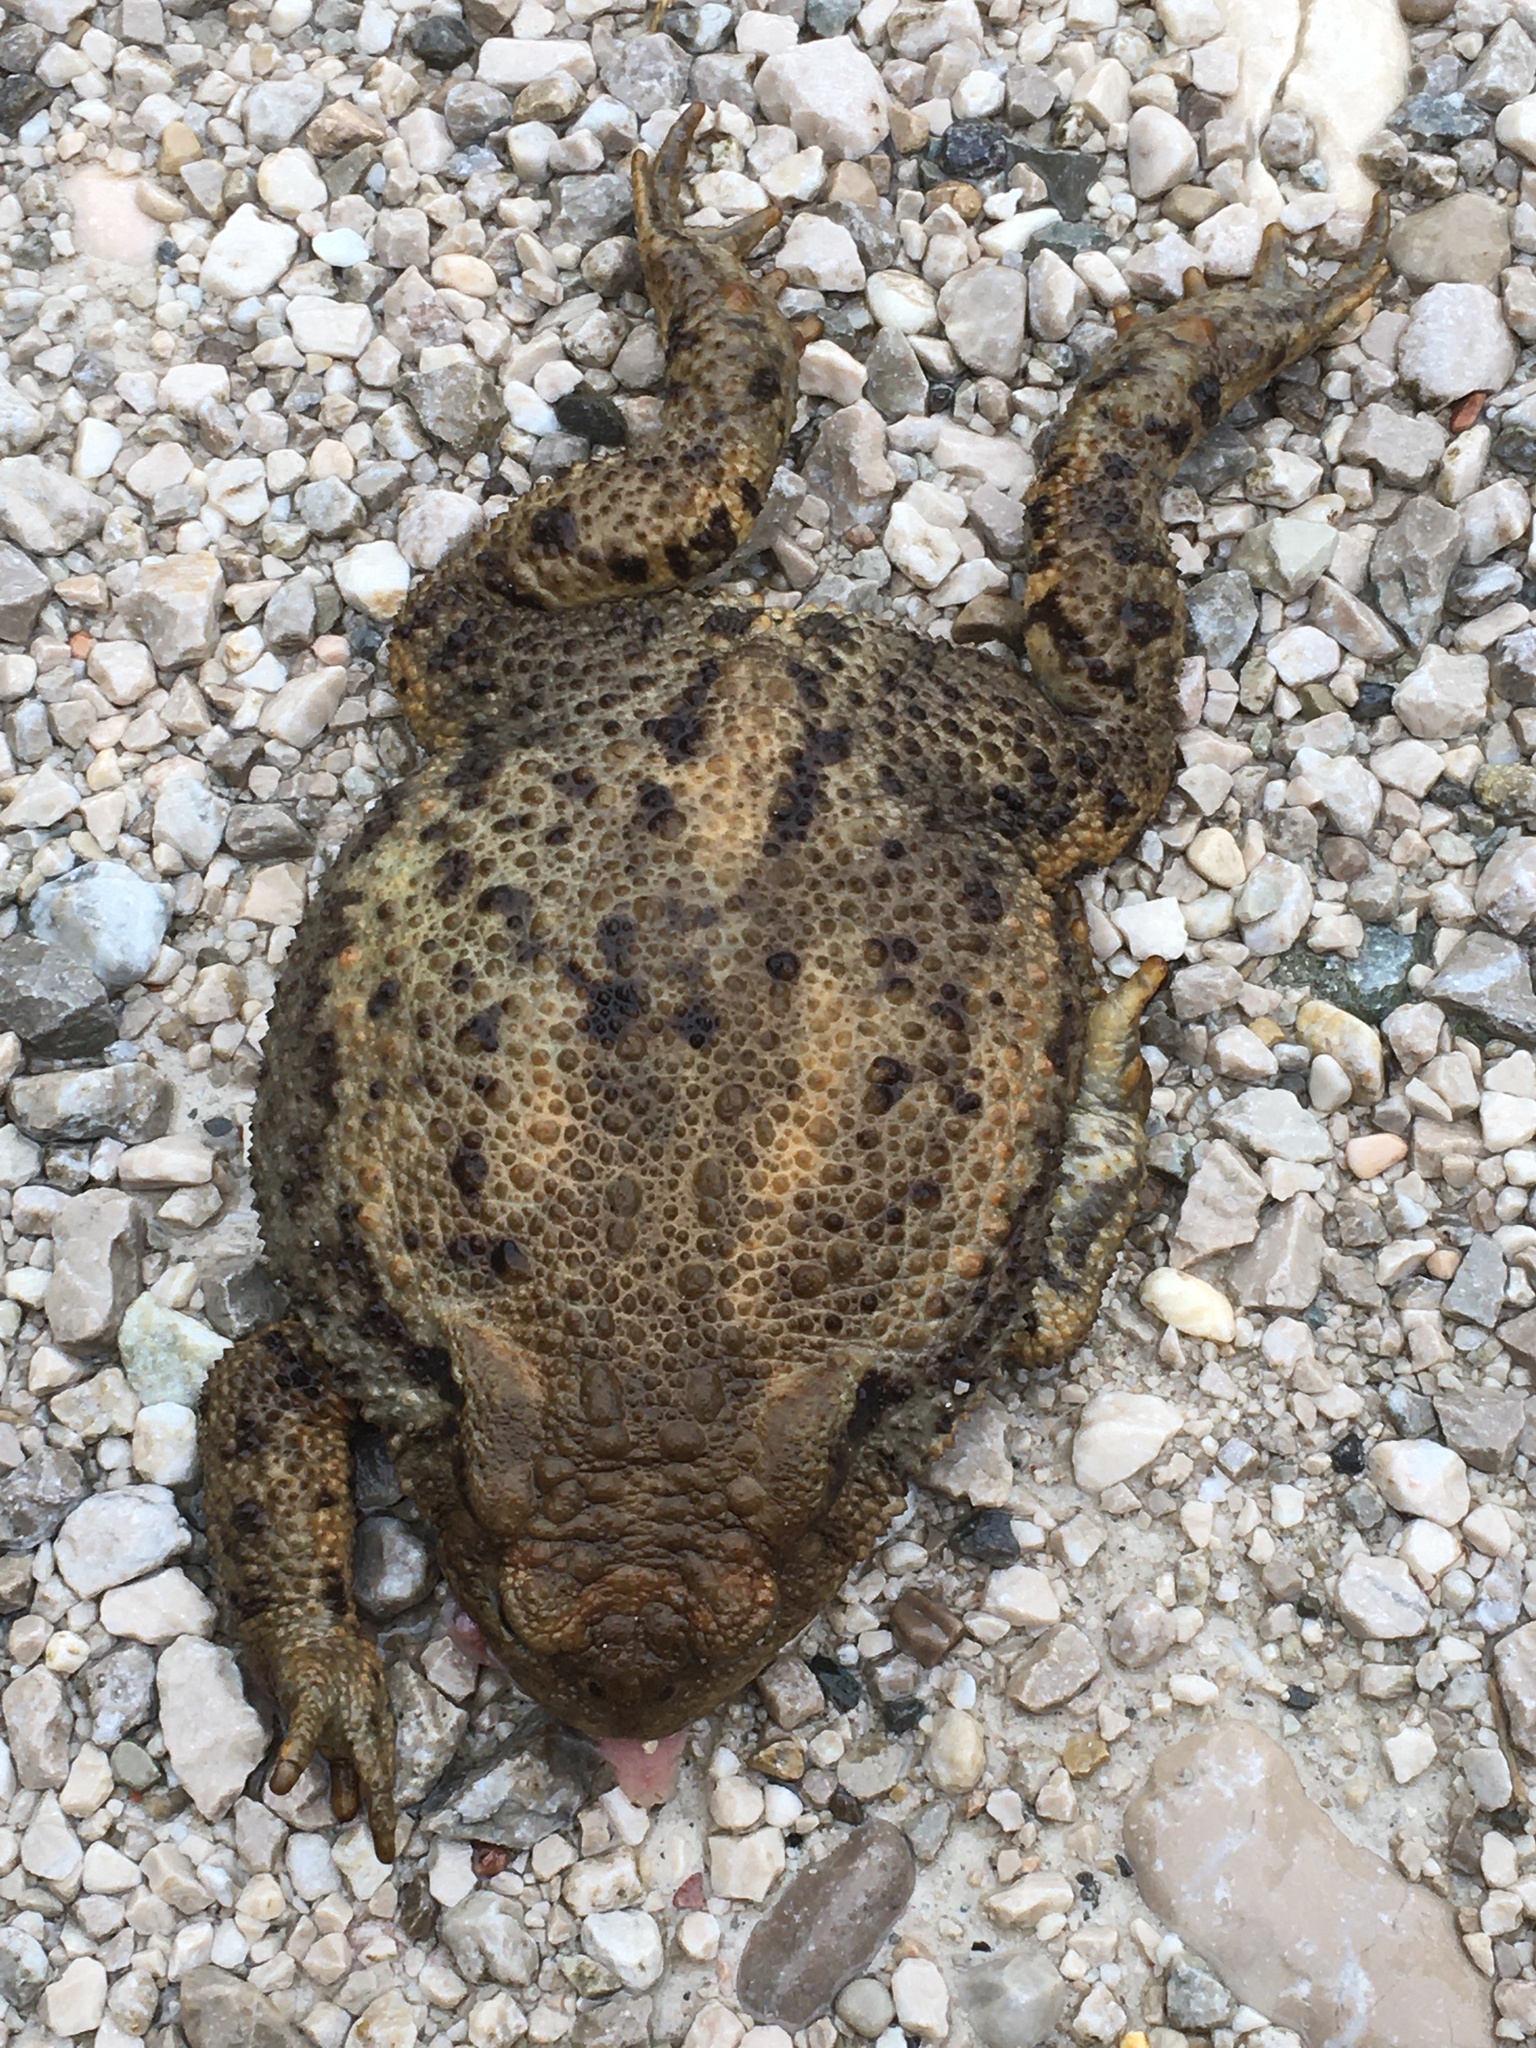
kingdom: Animalia
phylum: Chordata
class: Amphibia
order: Anura
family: Bufonidae
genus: Bufo
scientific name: Bufo bufo
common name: Common toad
